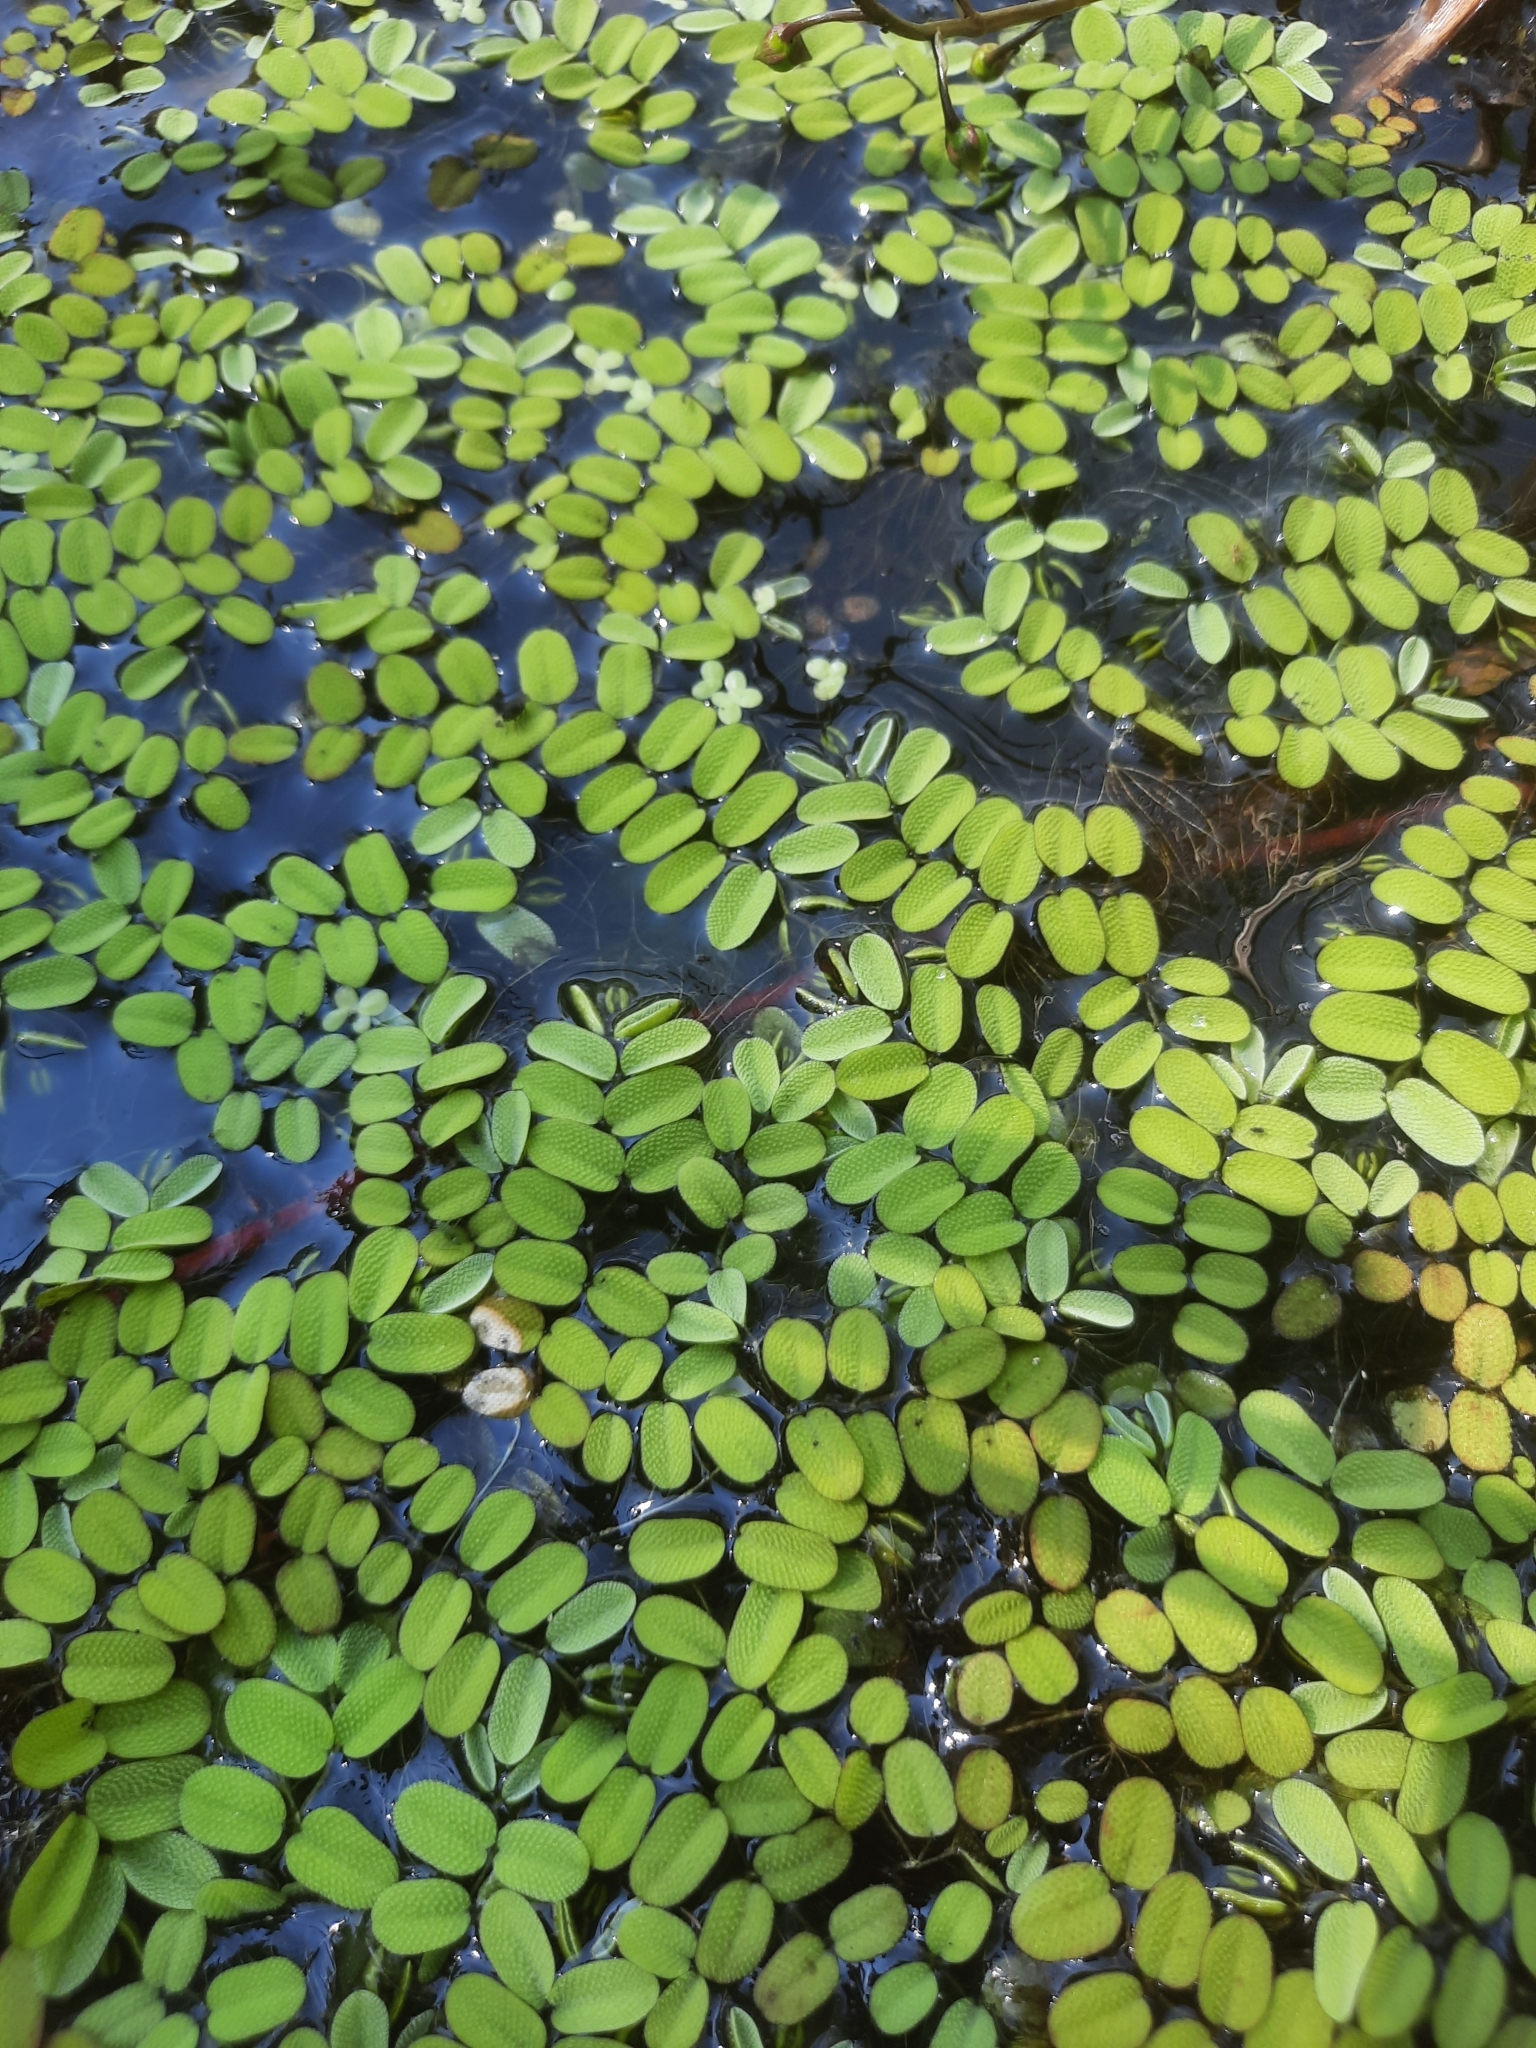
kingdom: Plantae
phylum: Tracheophyta
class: Polypodiopsida
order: Salviniales
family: Salviniaceae
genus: Salvinia
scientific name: Salvinia natans
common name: Floating fern
